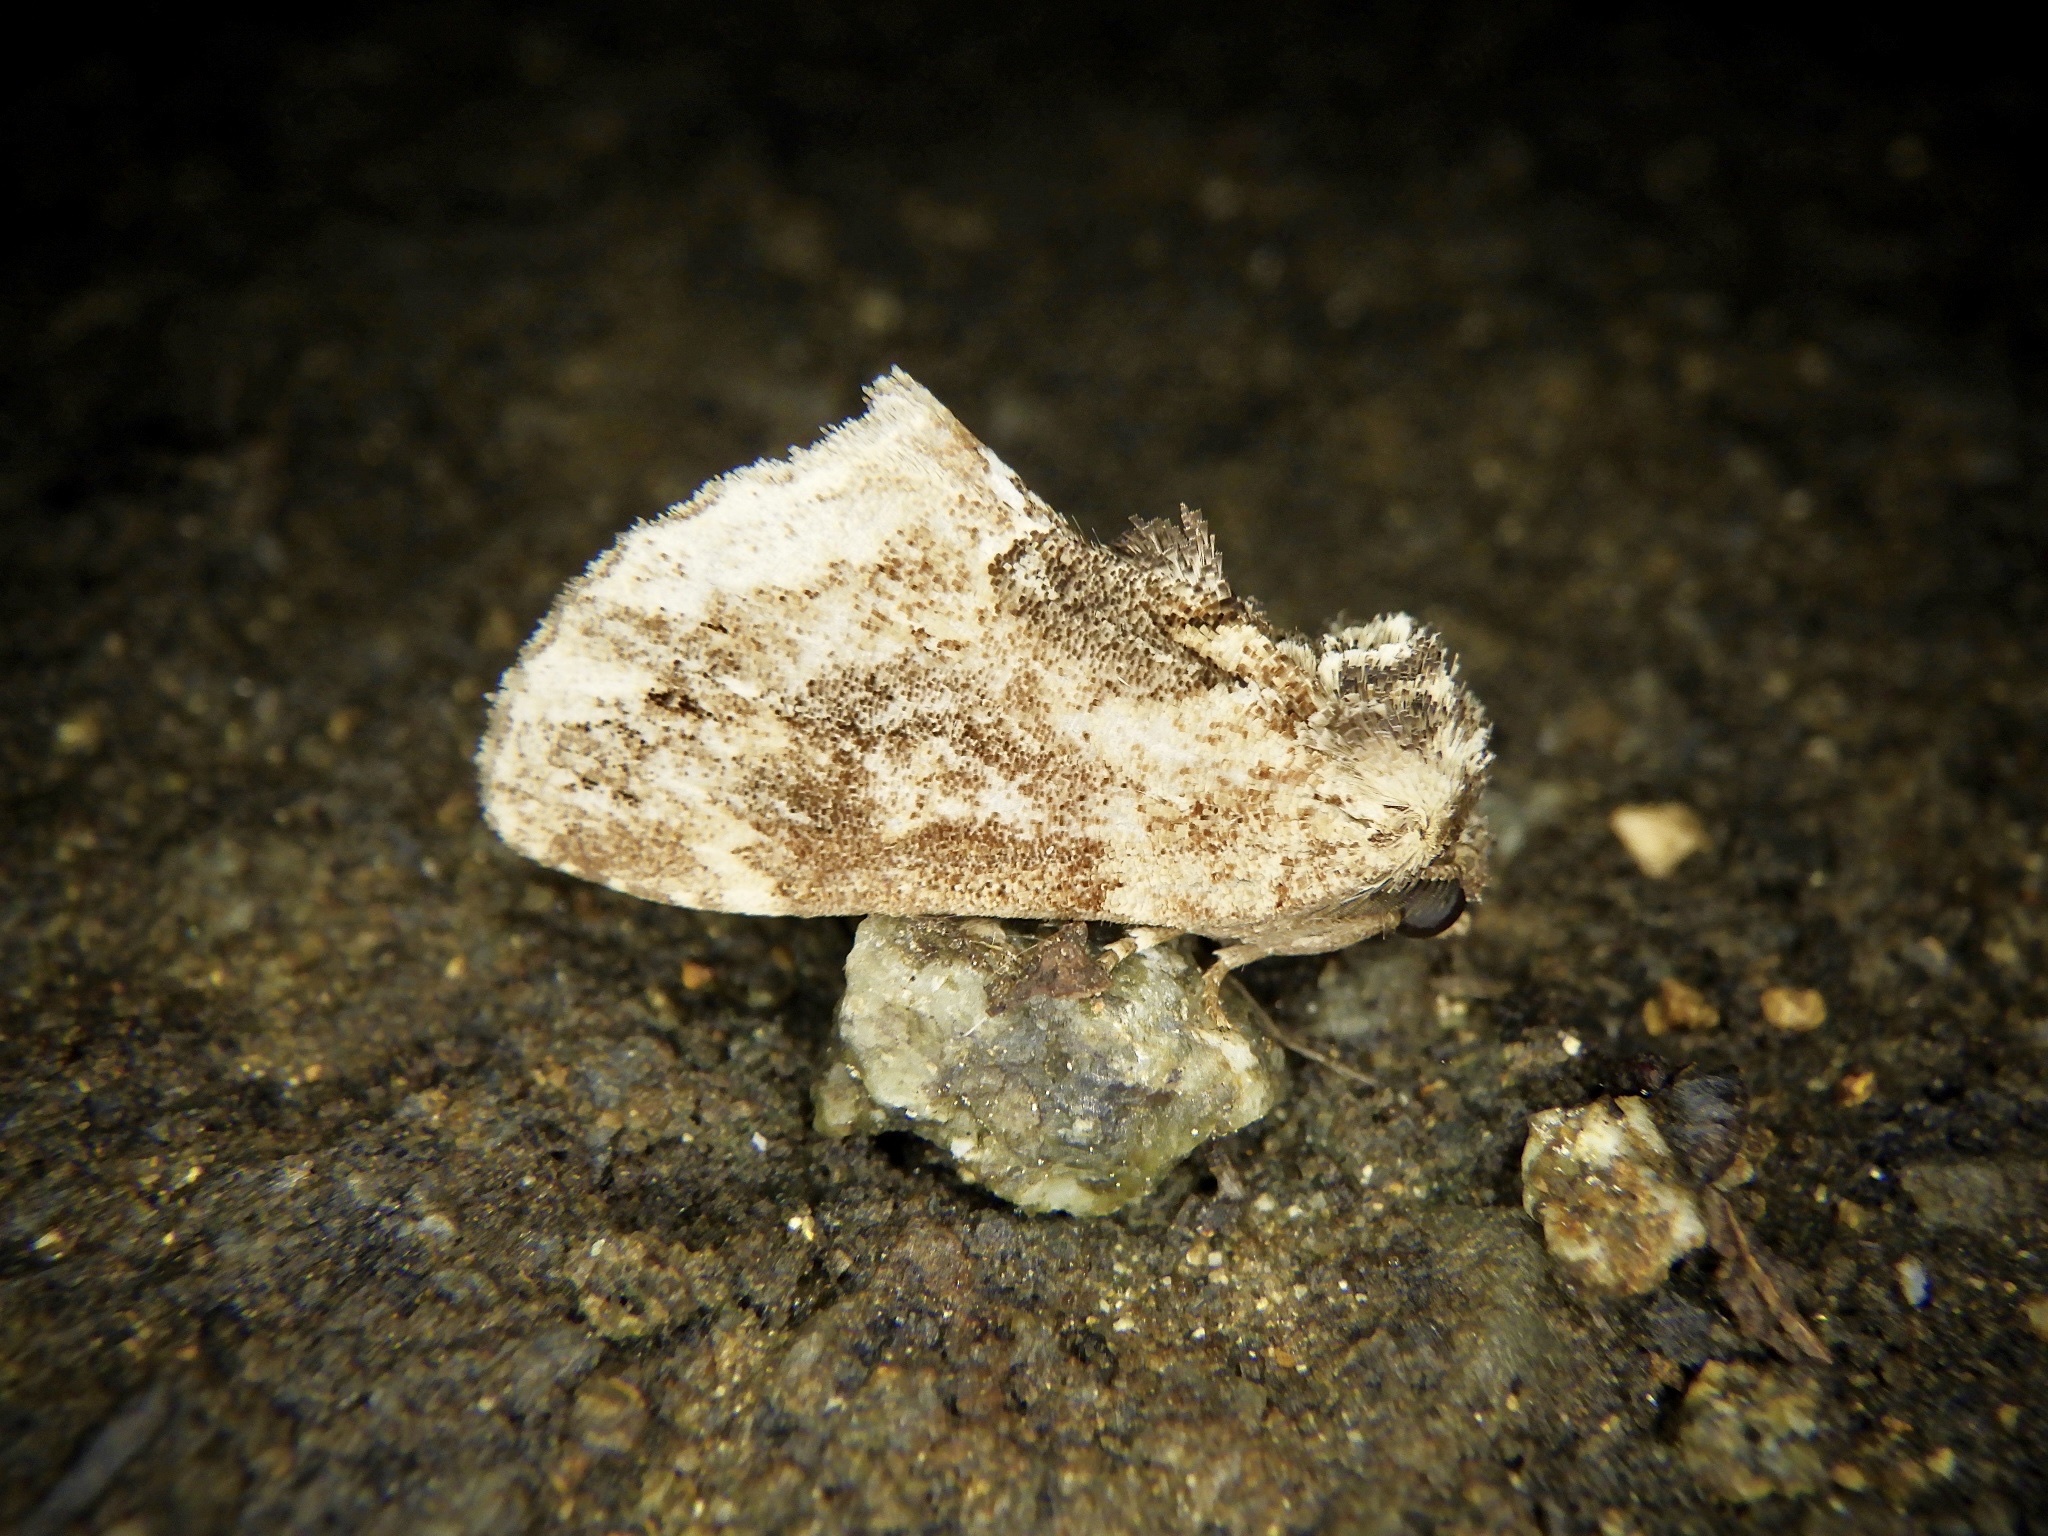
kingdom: Animalia
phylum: Arthropoda
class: Insecta
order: Lepidoptera
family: Notodontidae
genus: Lophontosia
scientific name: Lophontosia
